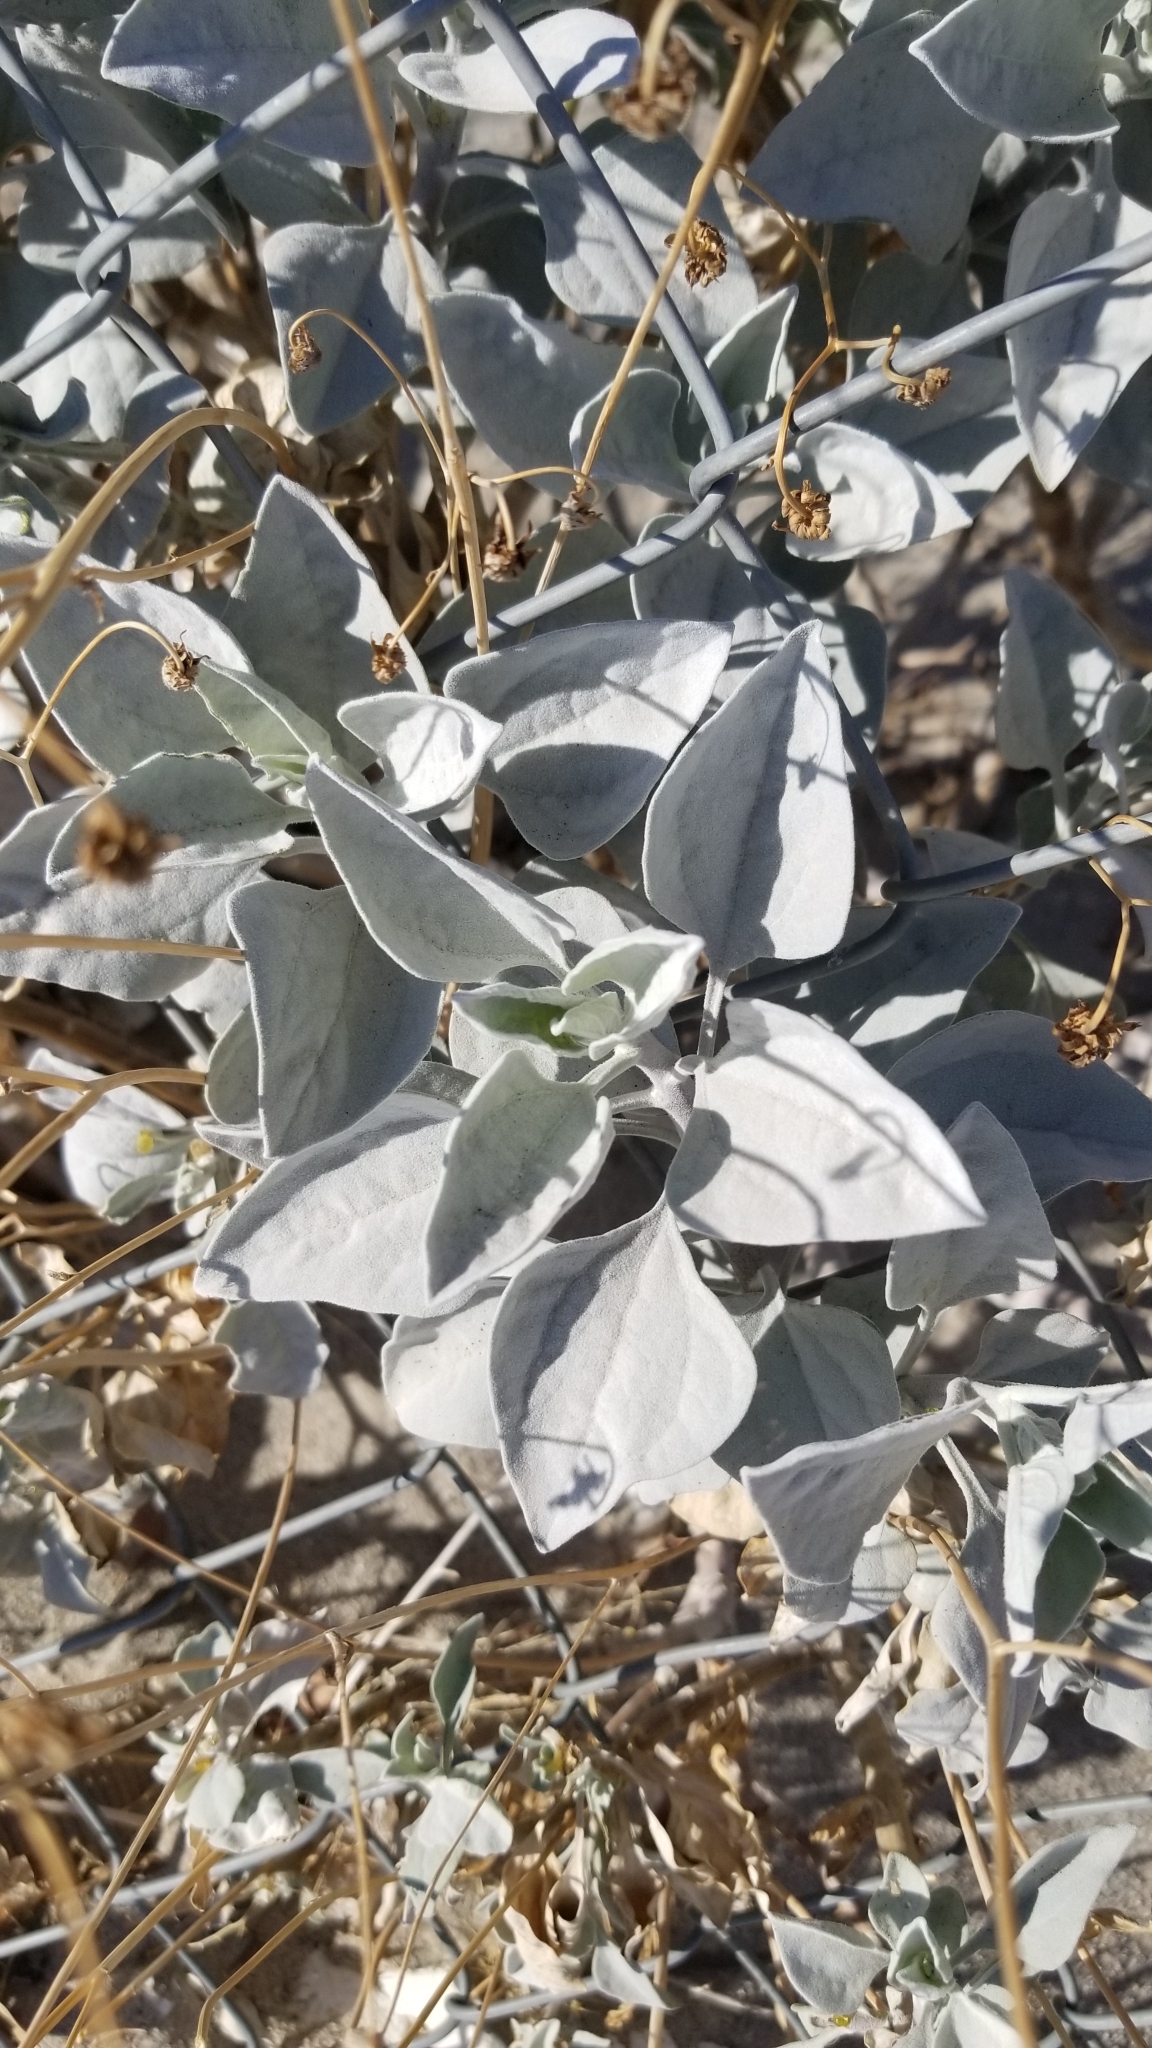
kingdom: Plantae
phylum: Tracheophyta
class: Magnoliopsida
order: Asterales
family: Asteraceae
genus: Encelia
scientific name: Encelia farinosa
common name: Brittlebush
